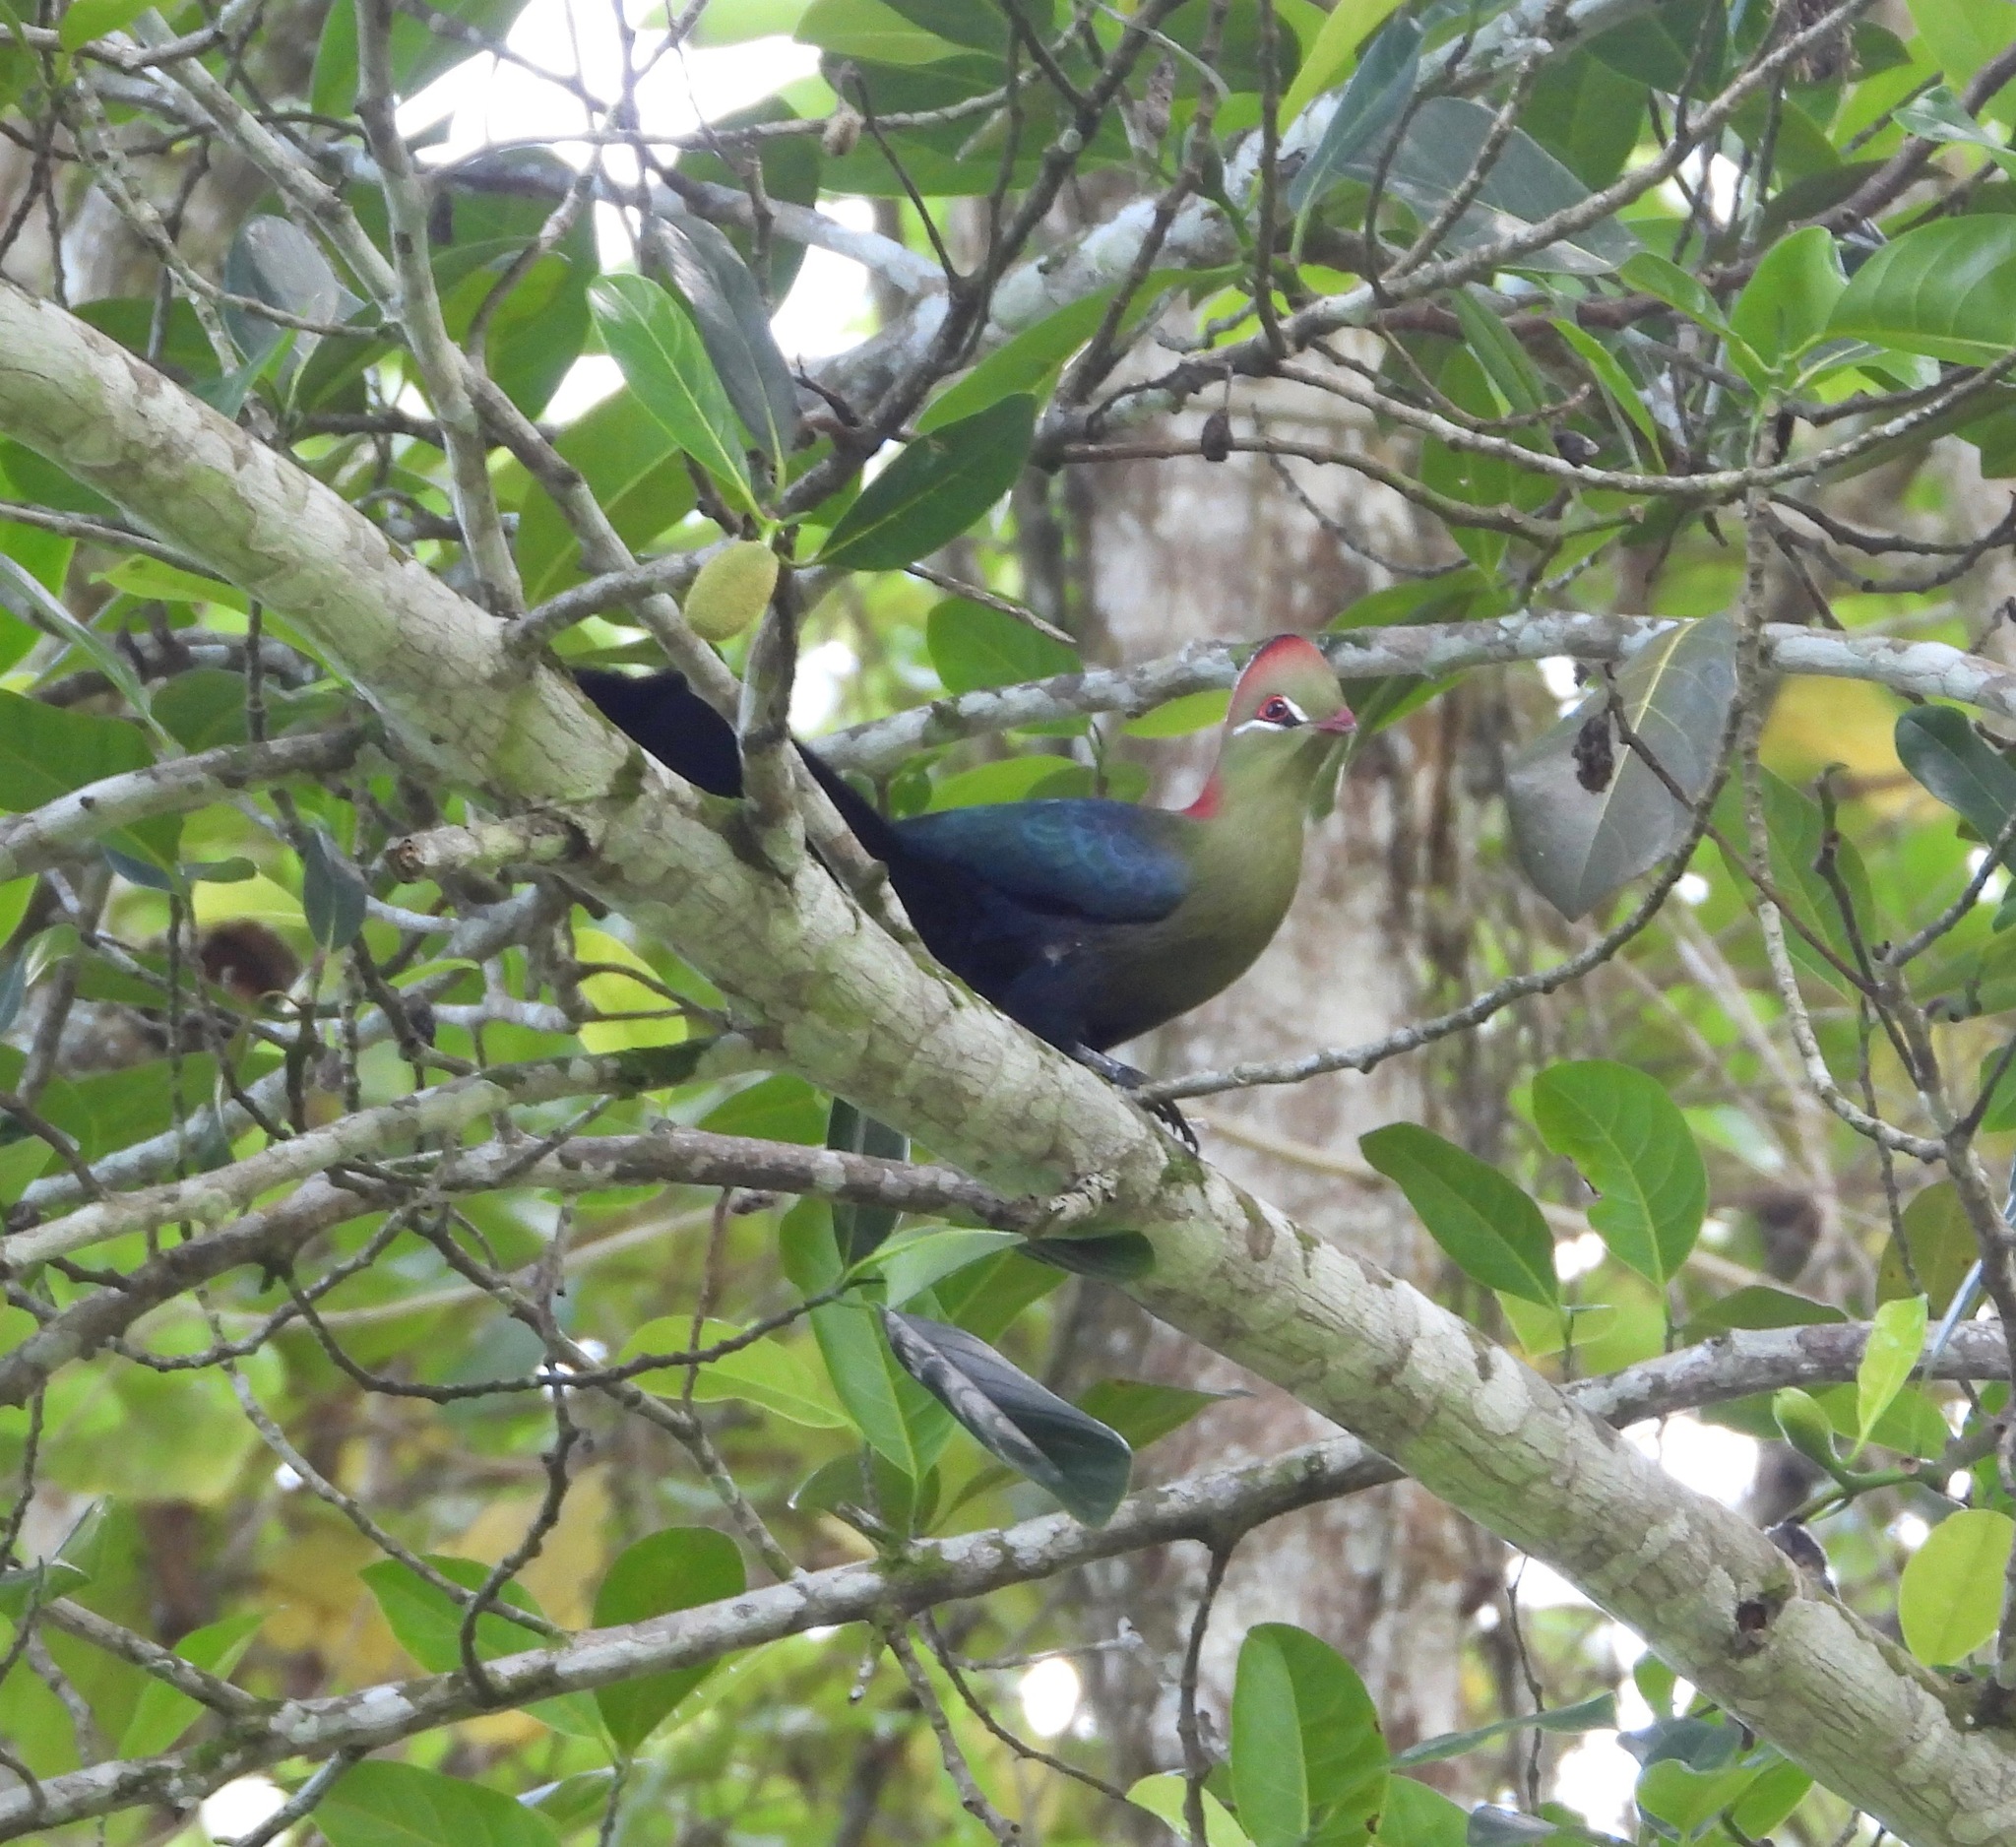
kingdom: Animalia
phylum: Chordata
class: Aves
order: Musophagiformes
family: Musophagidae
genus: Tauraco
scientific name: Tauraco fischeri
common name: Fischer's turaco
